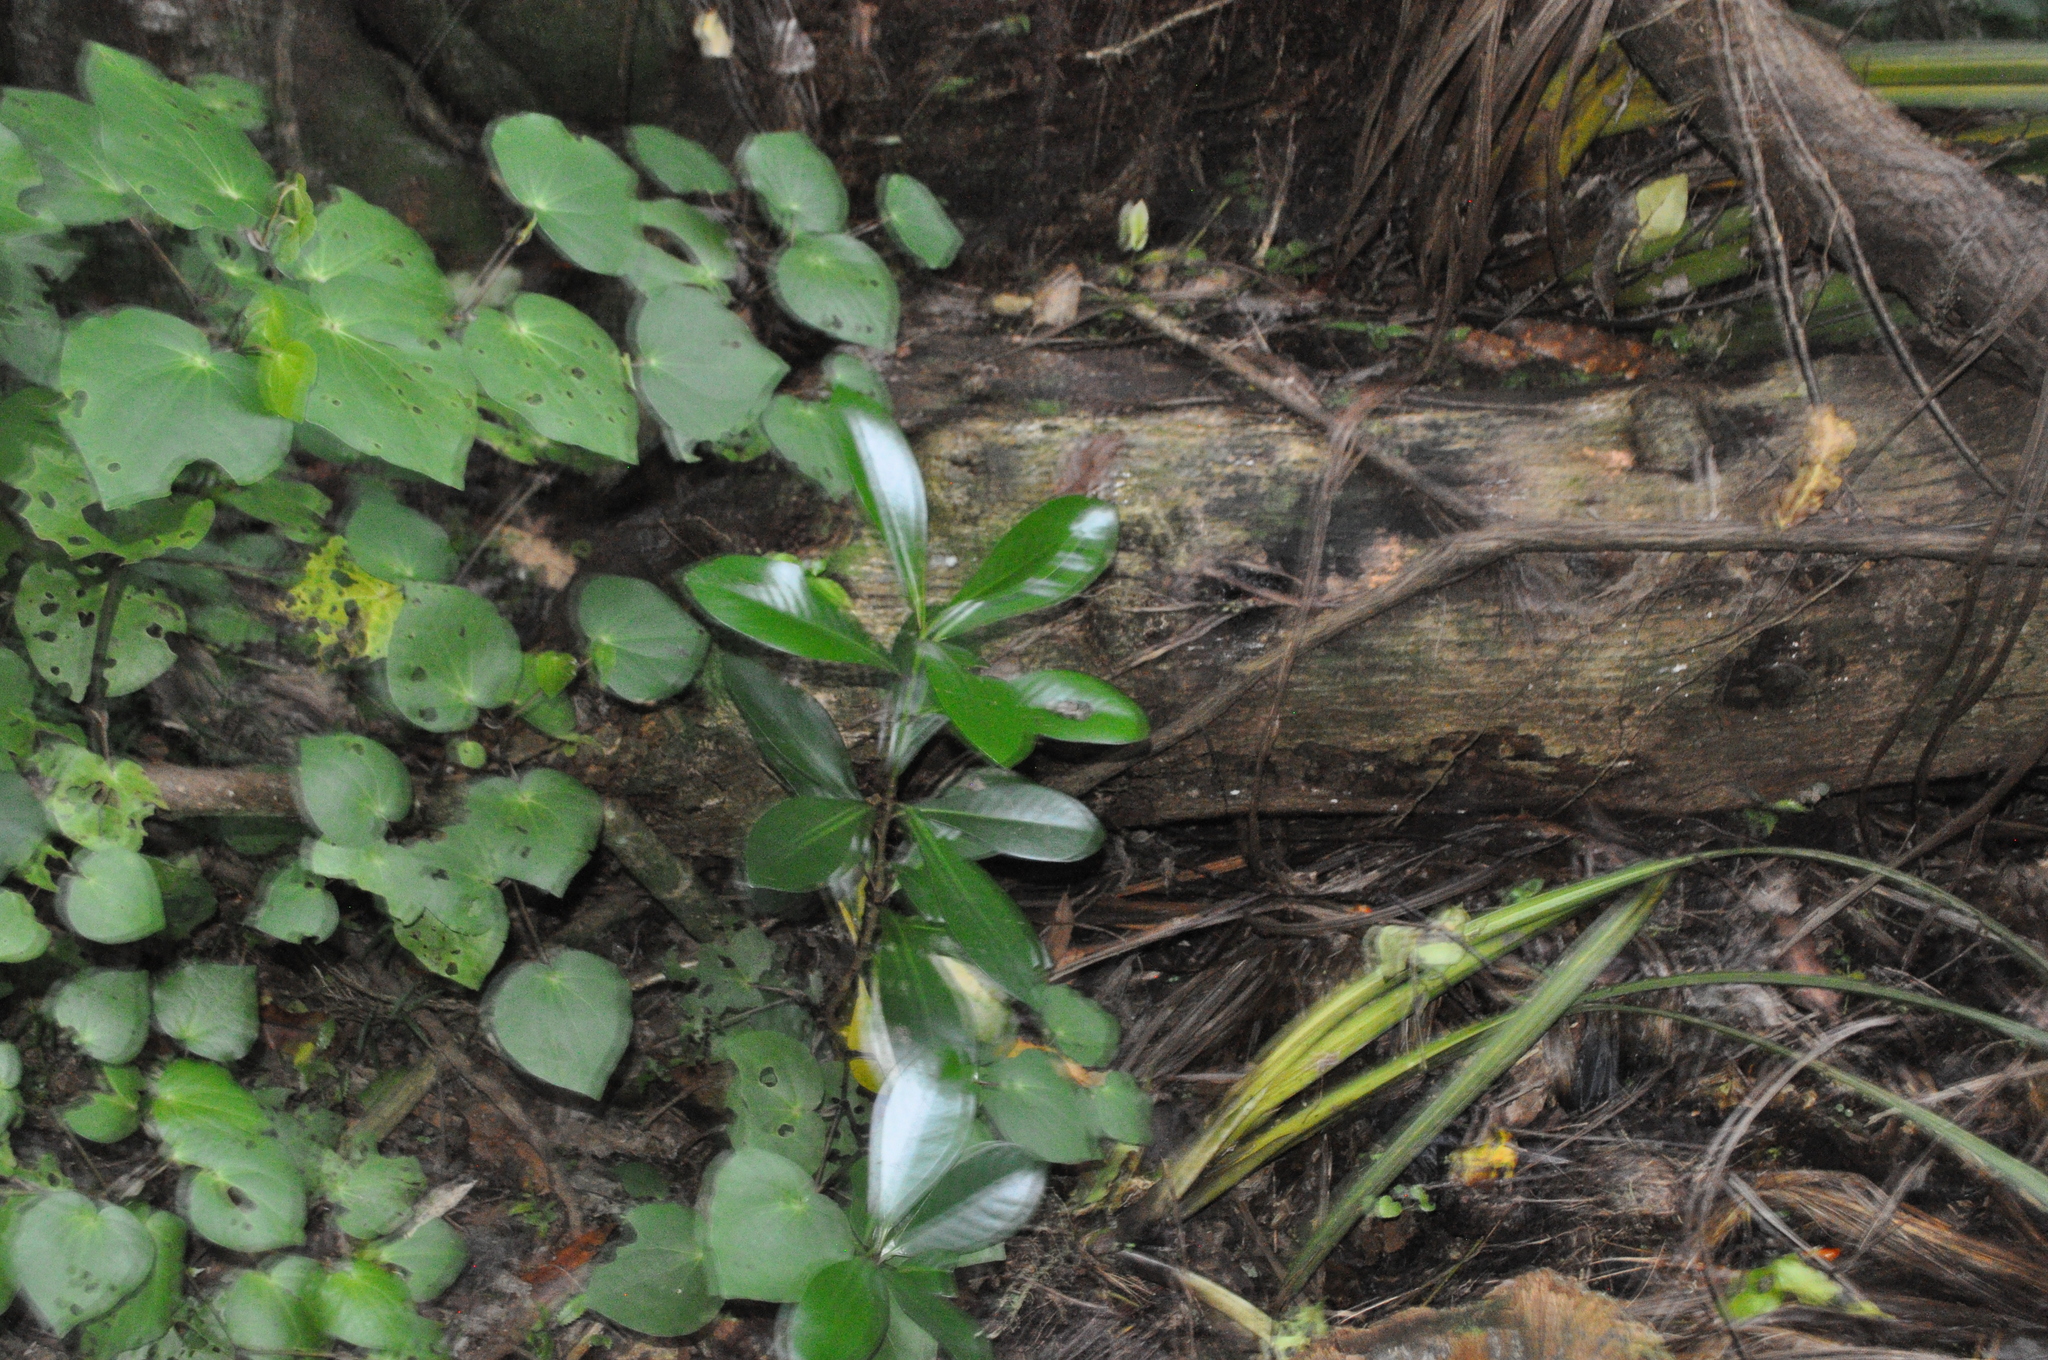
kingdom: Plantae
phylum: Tracheophyta
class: Magnoliopsida
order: Cucurbitales
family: Corynocarpaceae
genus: Corynocarpus
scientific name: Corynocarpus laevigatus
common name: New zealand laurel
